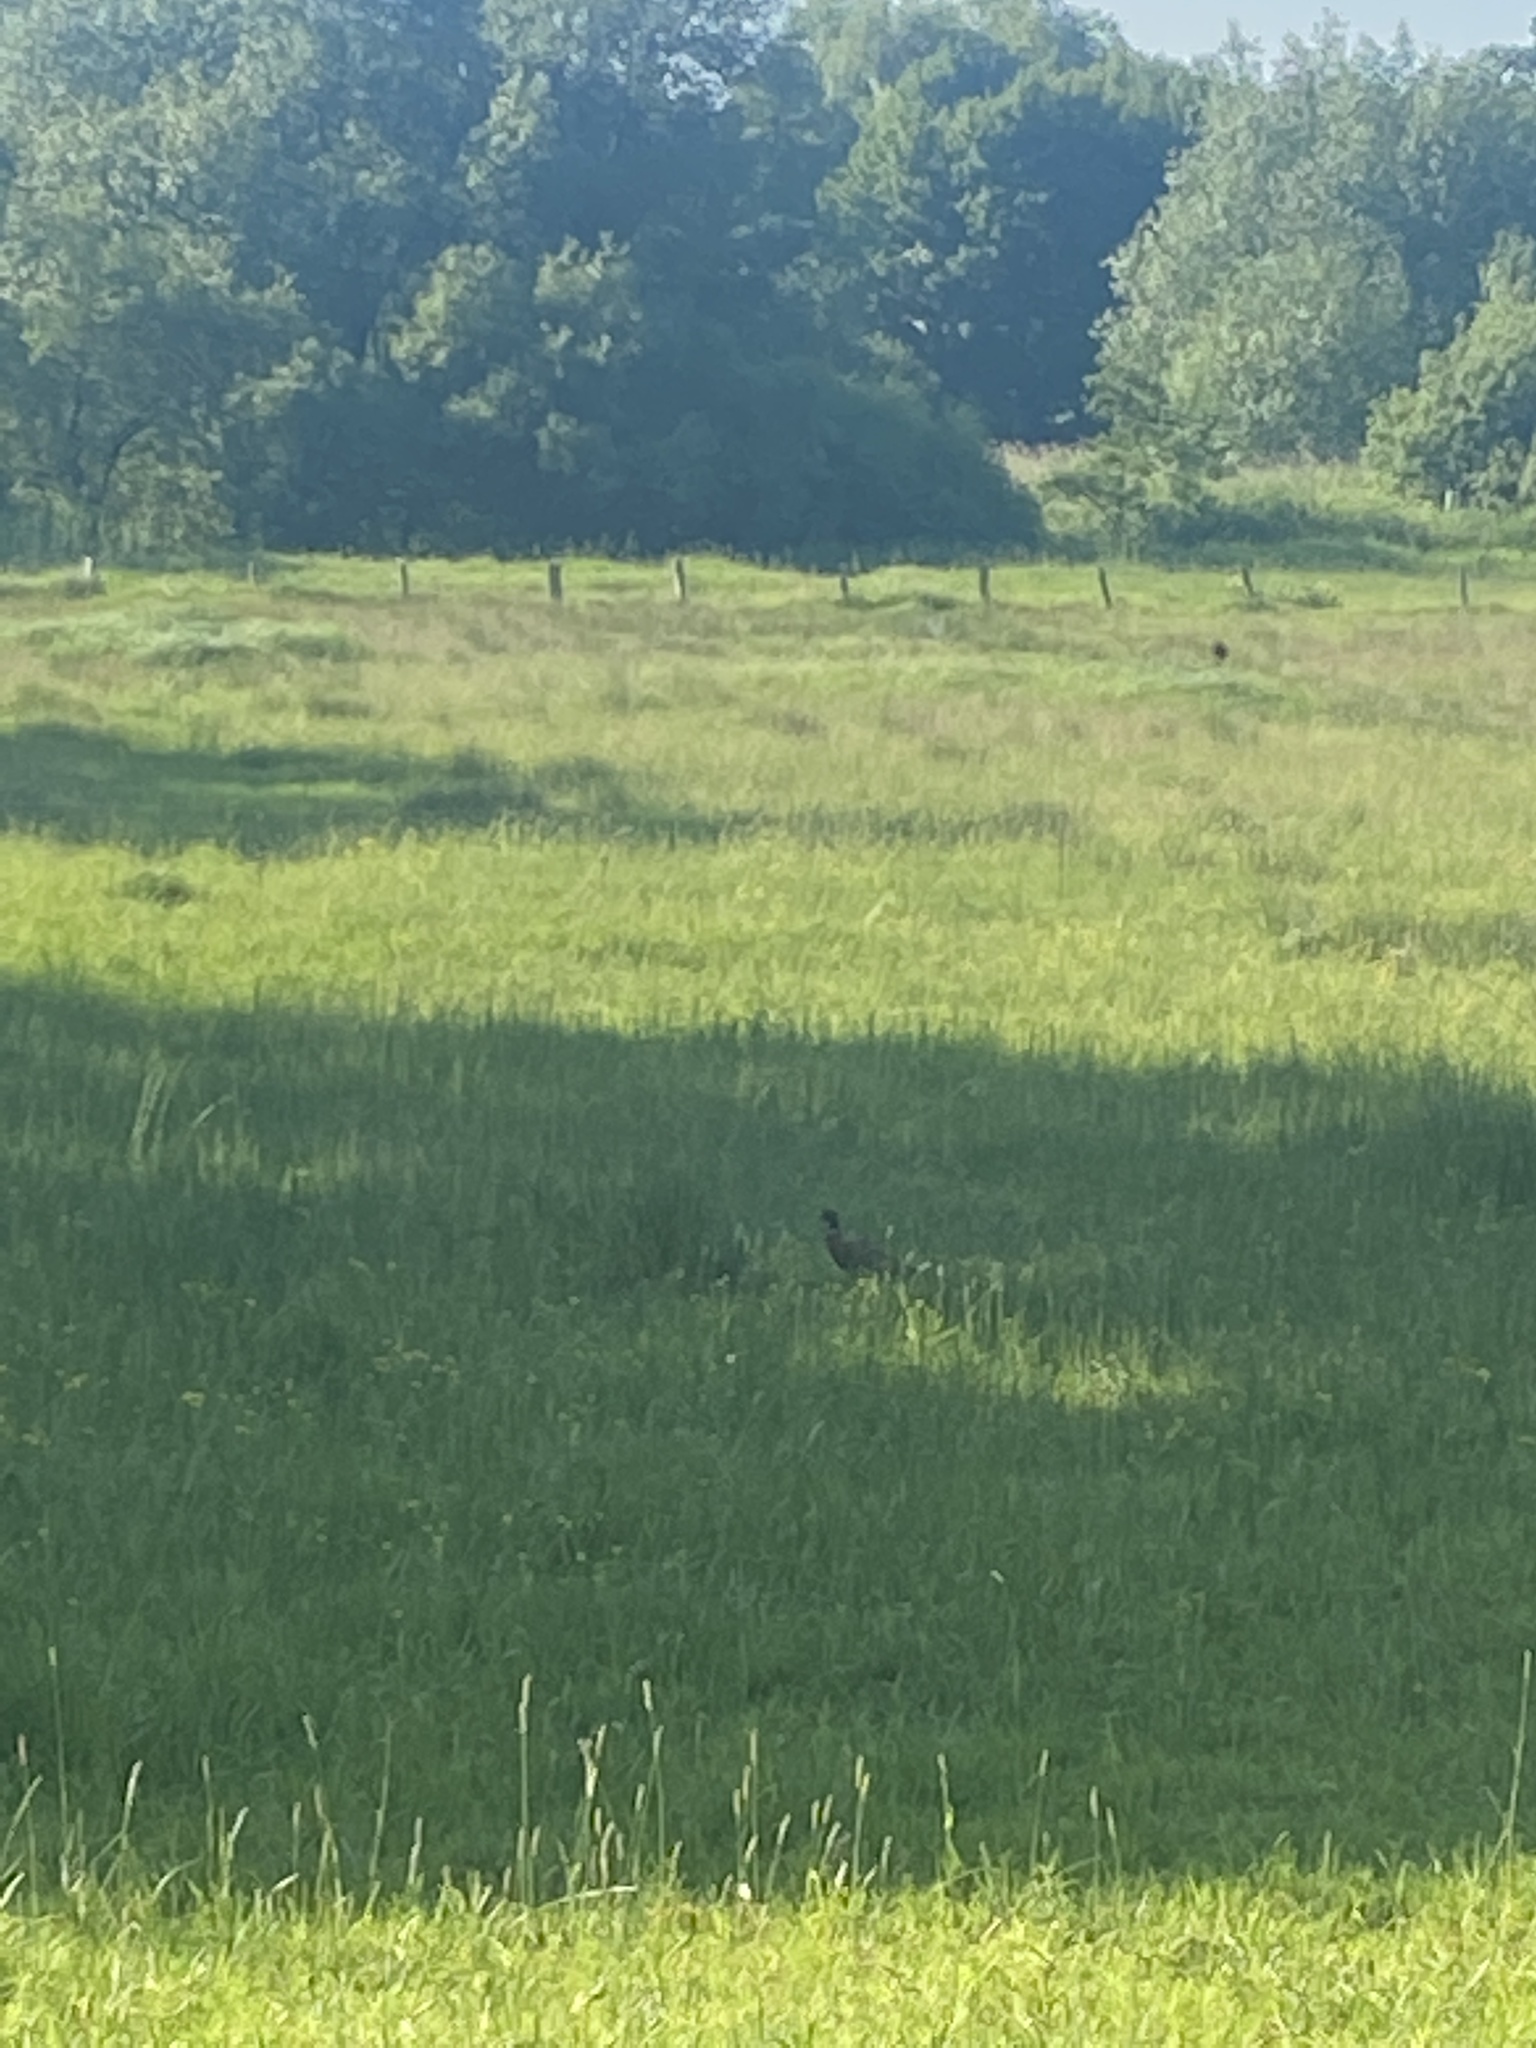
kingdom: Animalia
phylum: Chordata
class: Aves
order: Galliformes
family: Phasianidae
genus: Phasianus
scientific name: Phasianus colchicus
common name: Common pheasant
